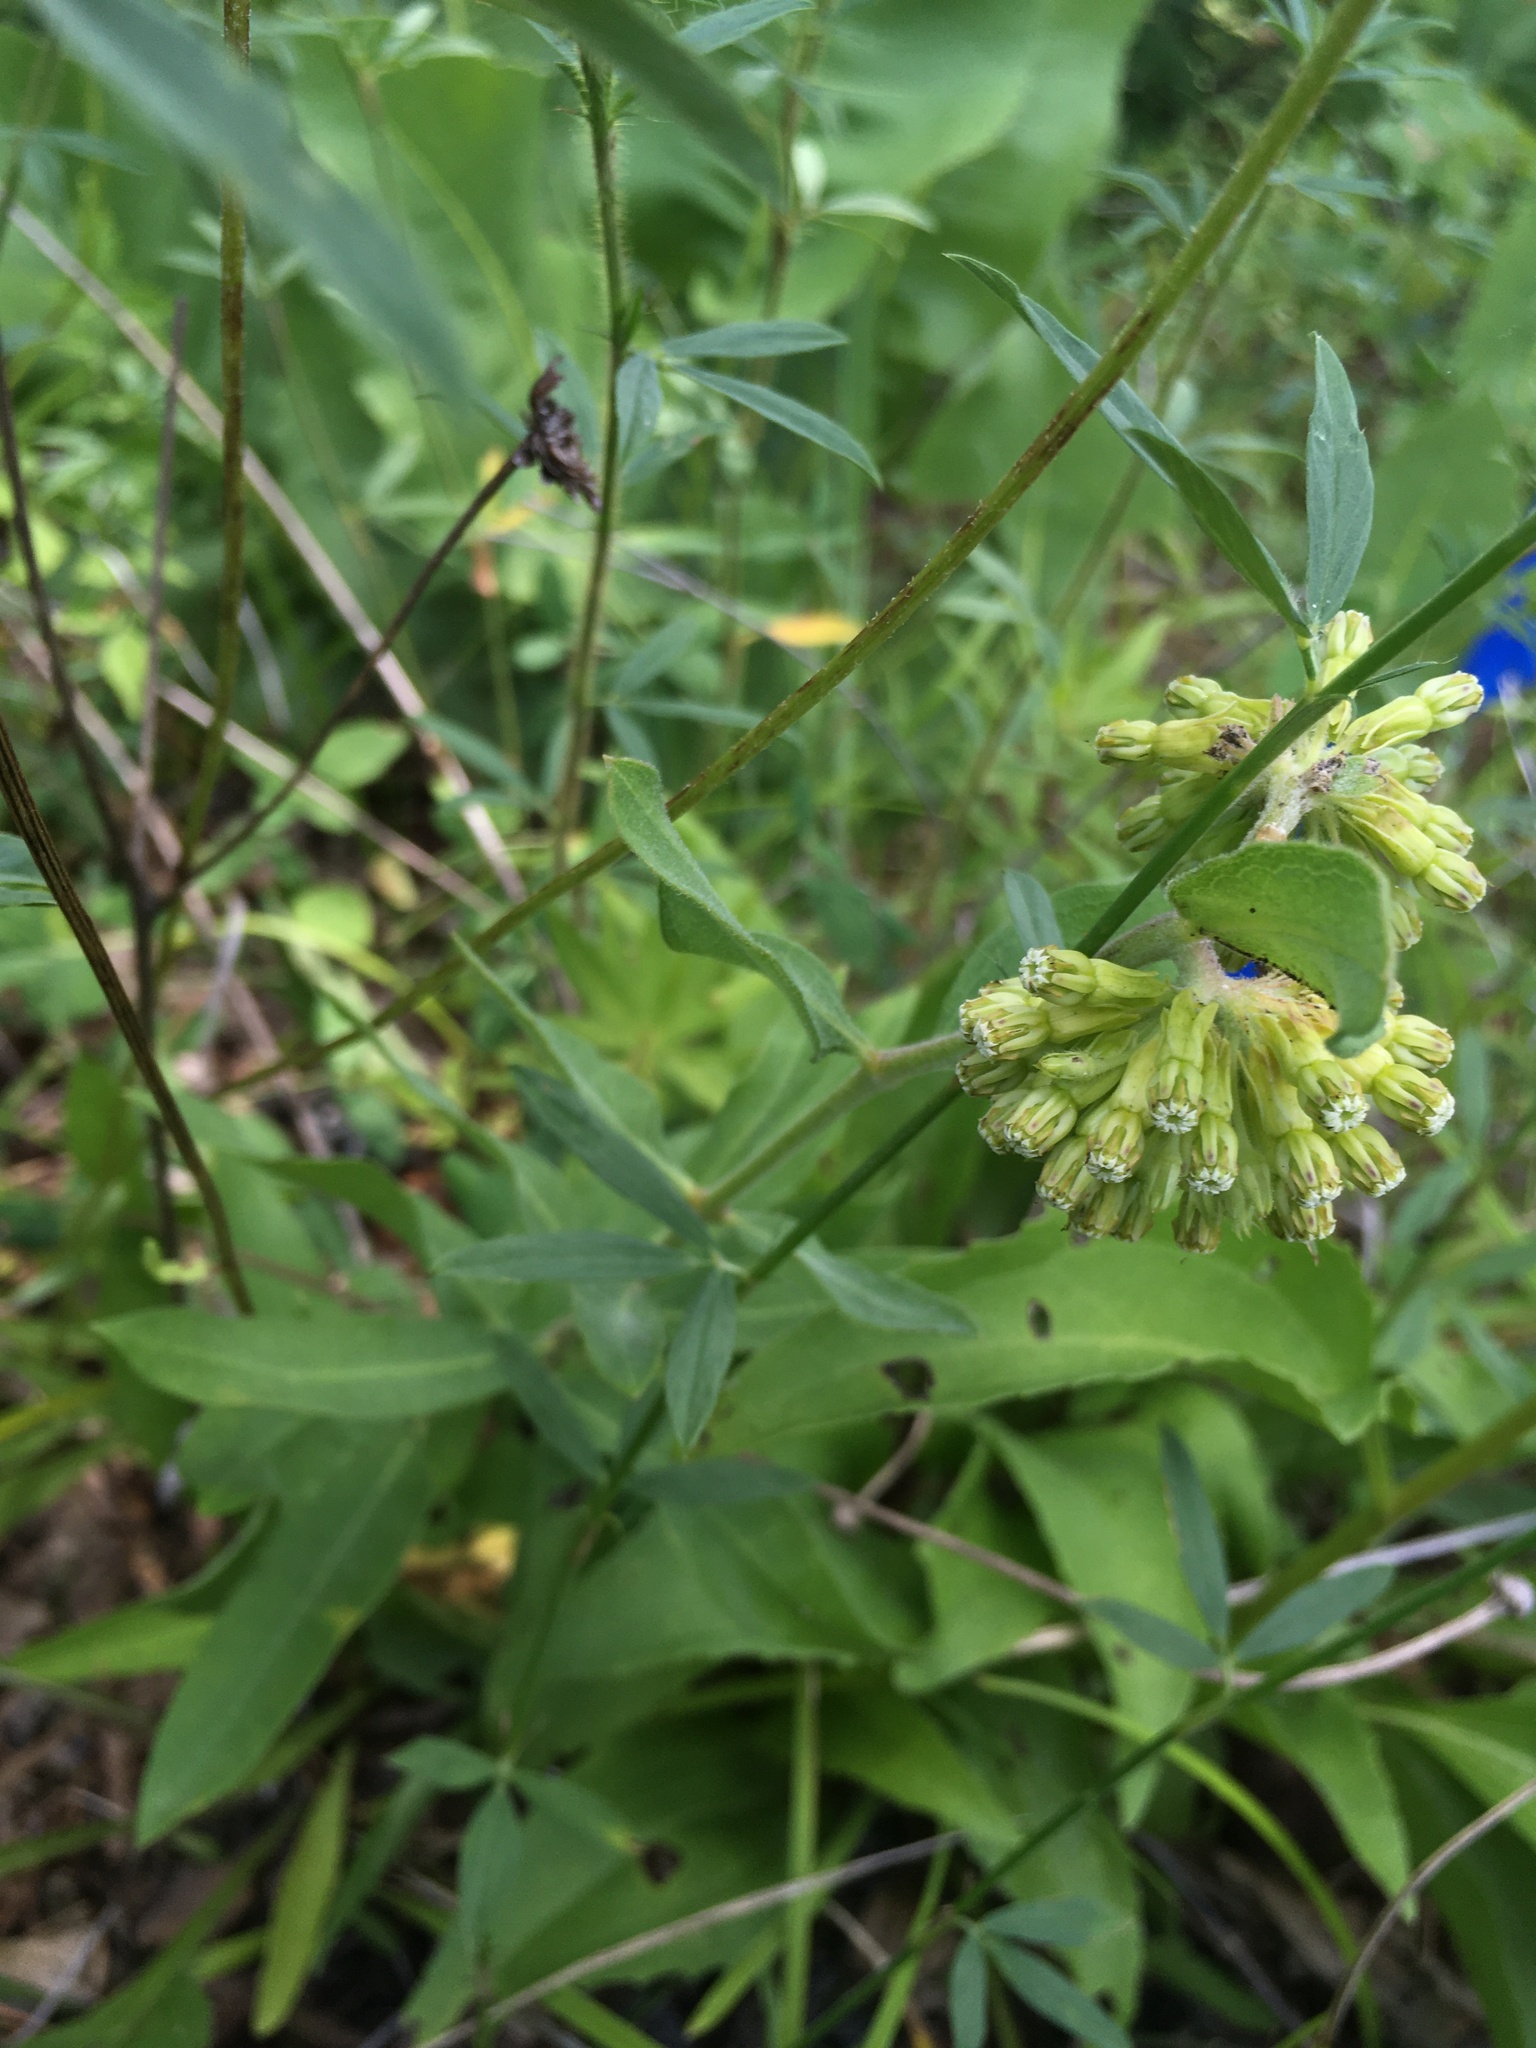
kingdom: Plantae
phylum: Tracheophyta
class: Magnoliopsida
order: Gentianales
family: Apocynaceae
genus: Asclepias
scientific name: Asclepias viridiflora
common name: Green comet milkweed
